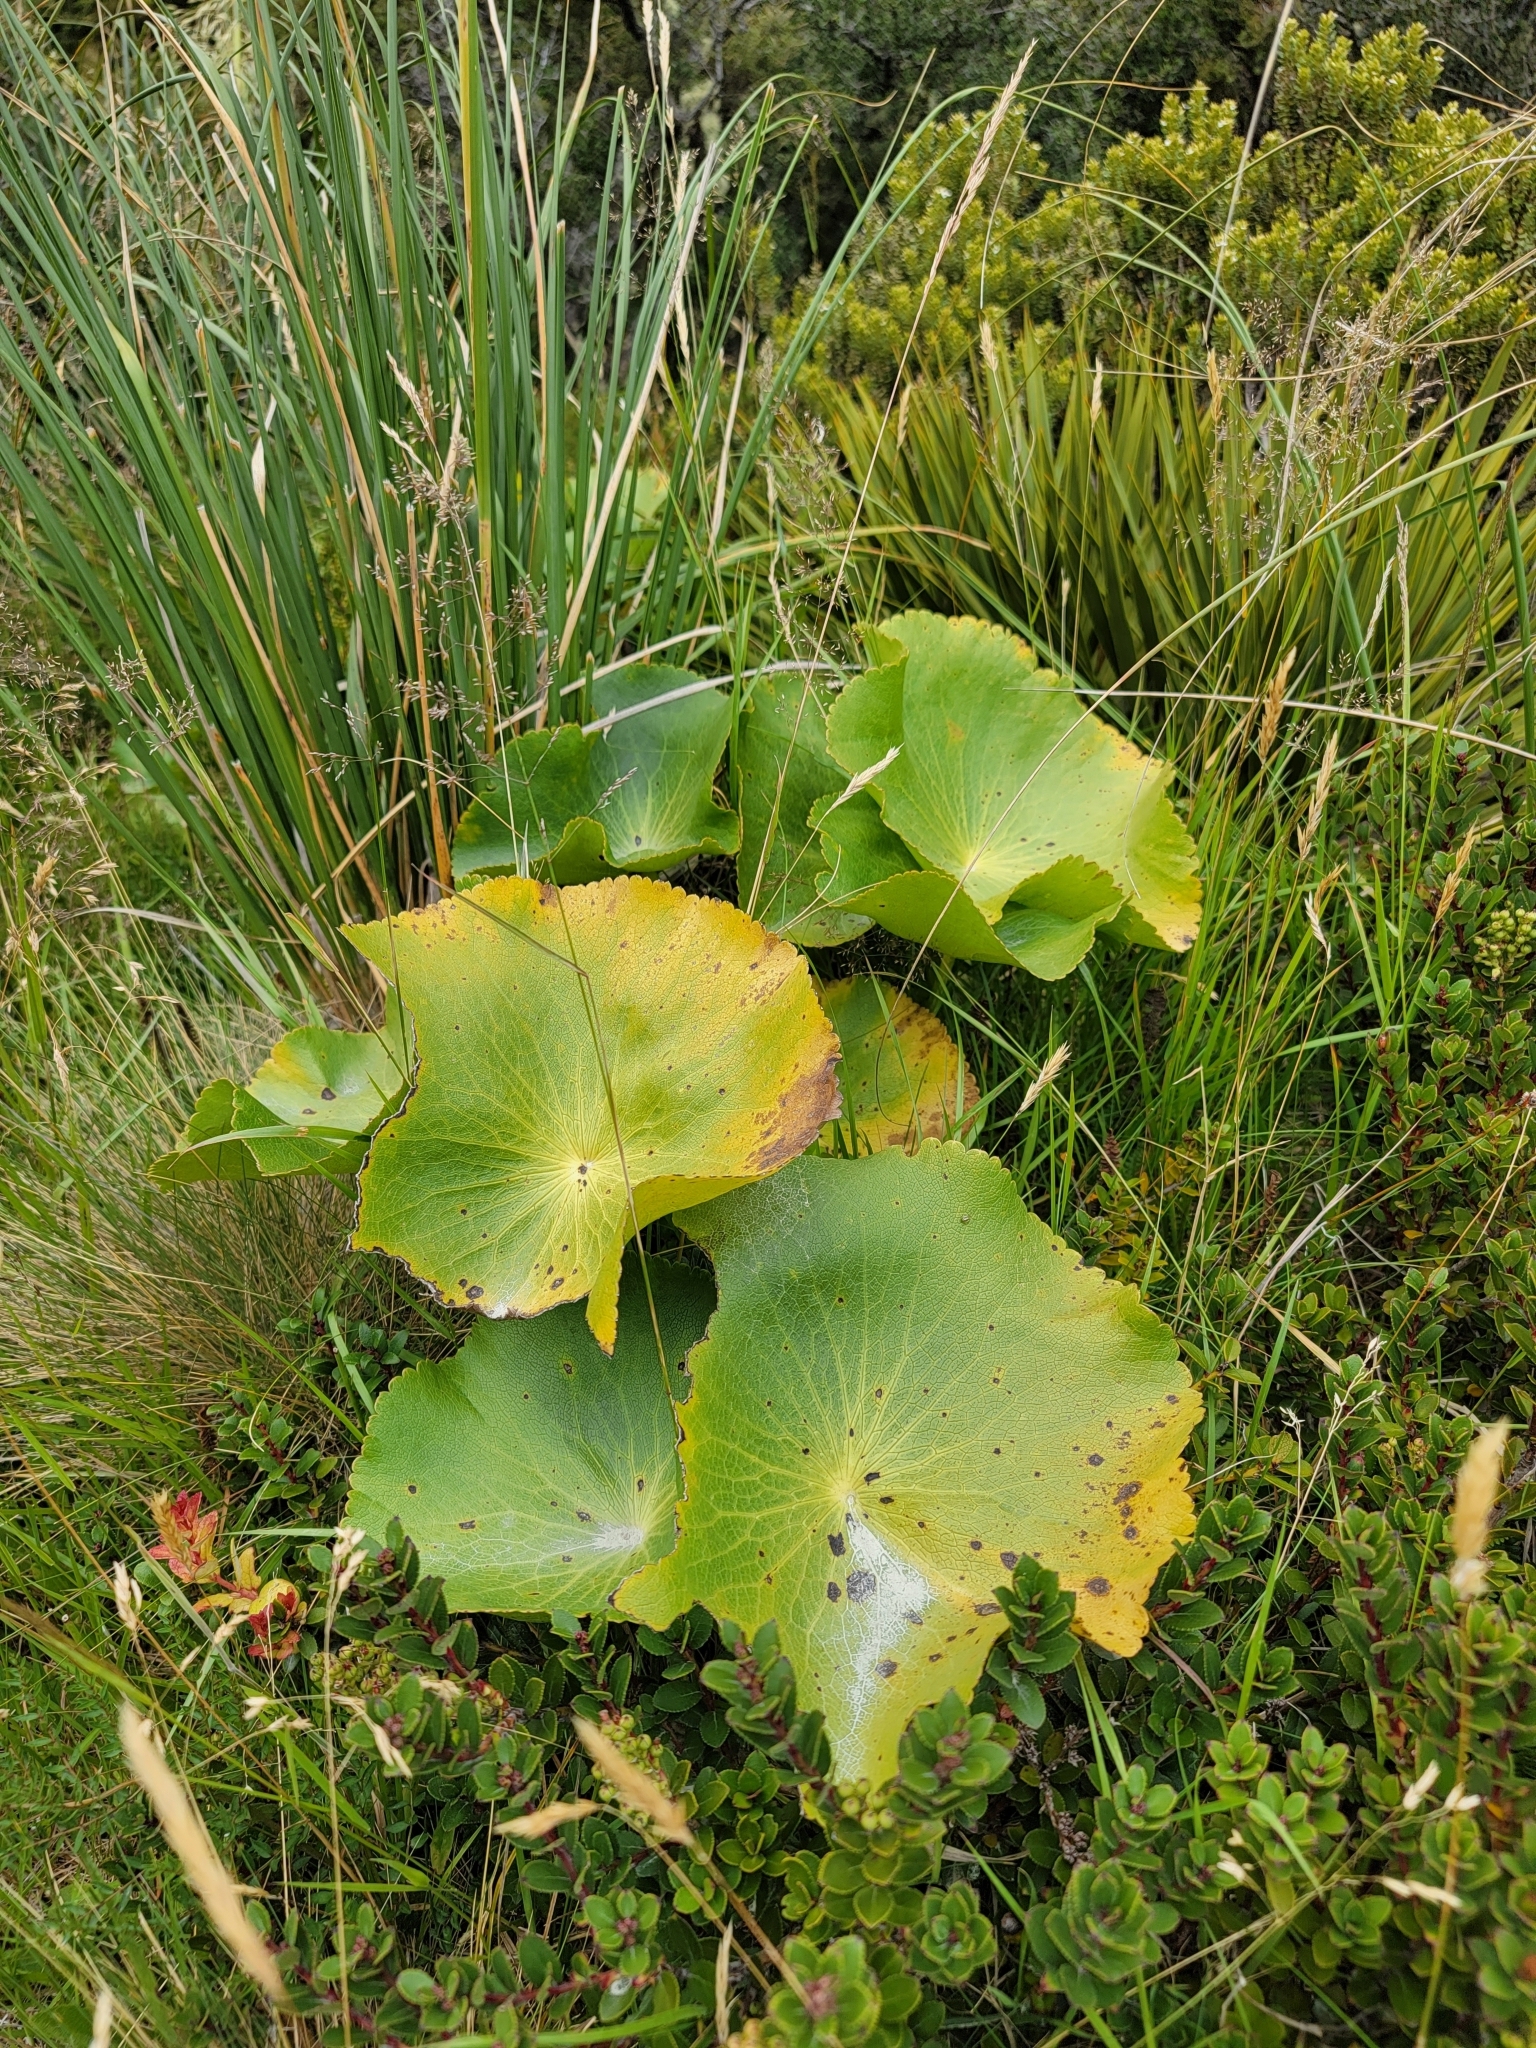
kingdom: Plantae
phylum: Tracheophyta
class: Magnoliopsida
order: Ranunculales
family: Ranunculaceae
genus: Ranunculus
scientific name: Ranunculus lyallii
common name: Mountain-lily
